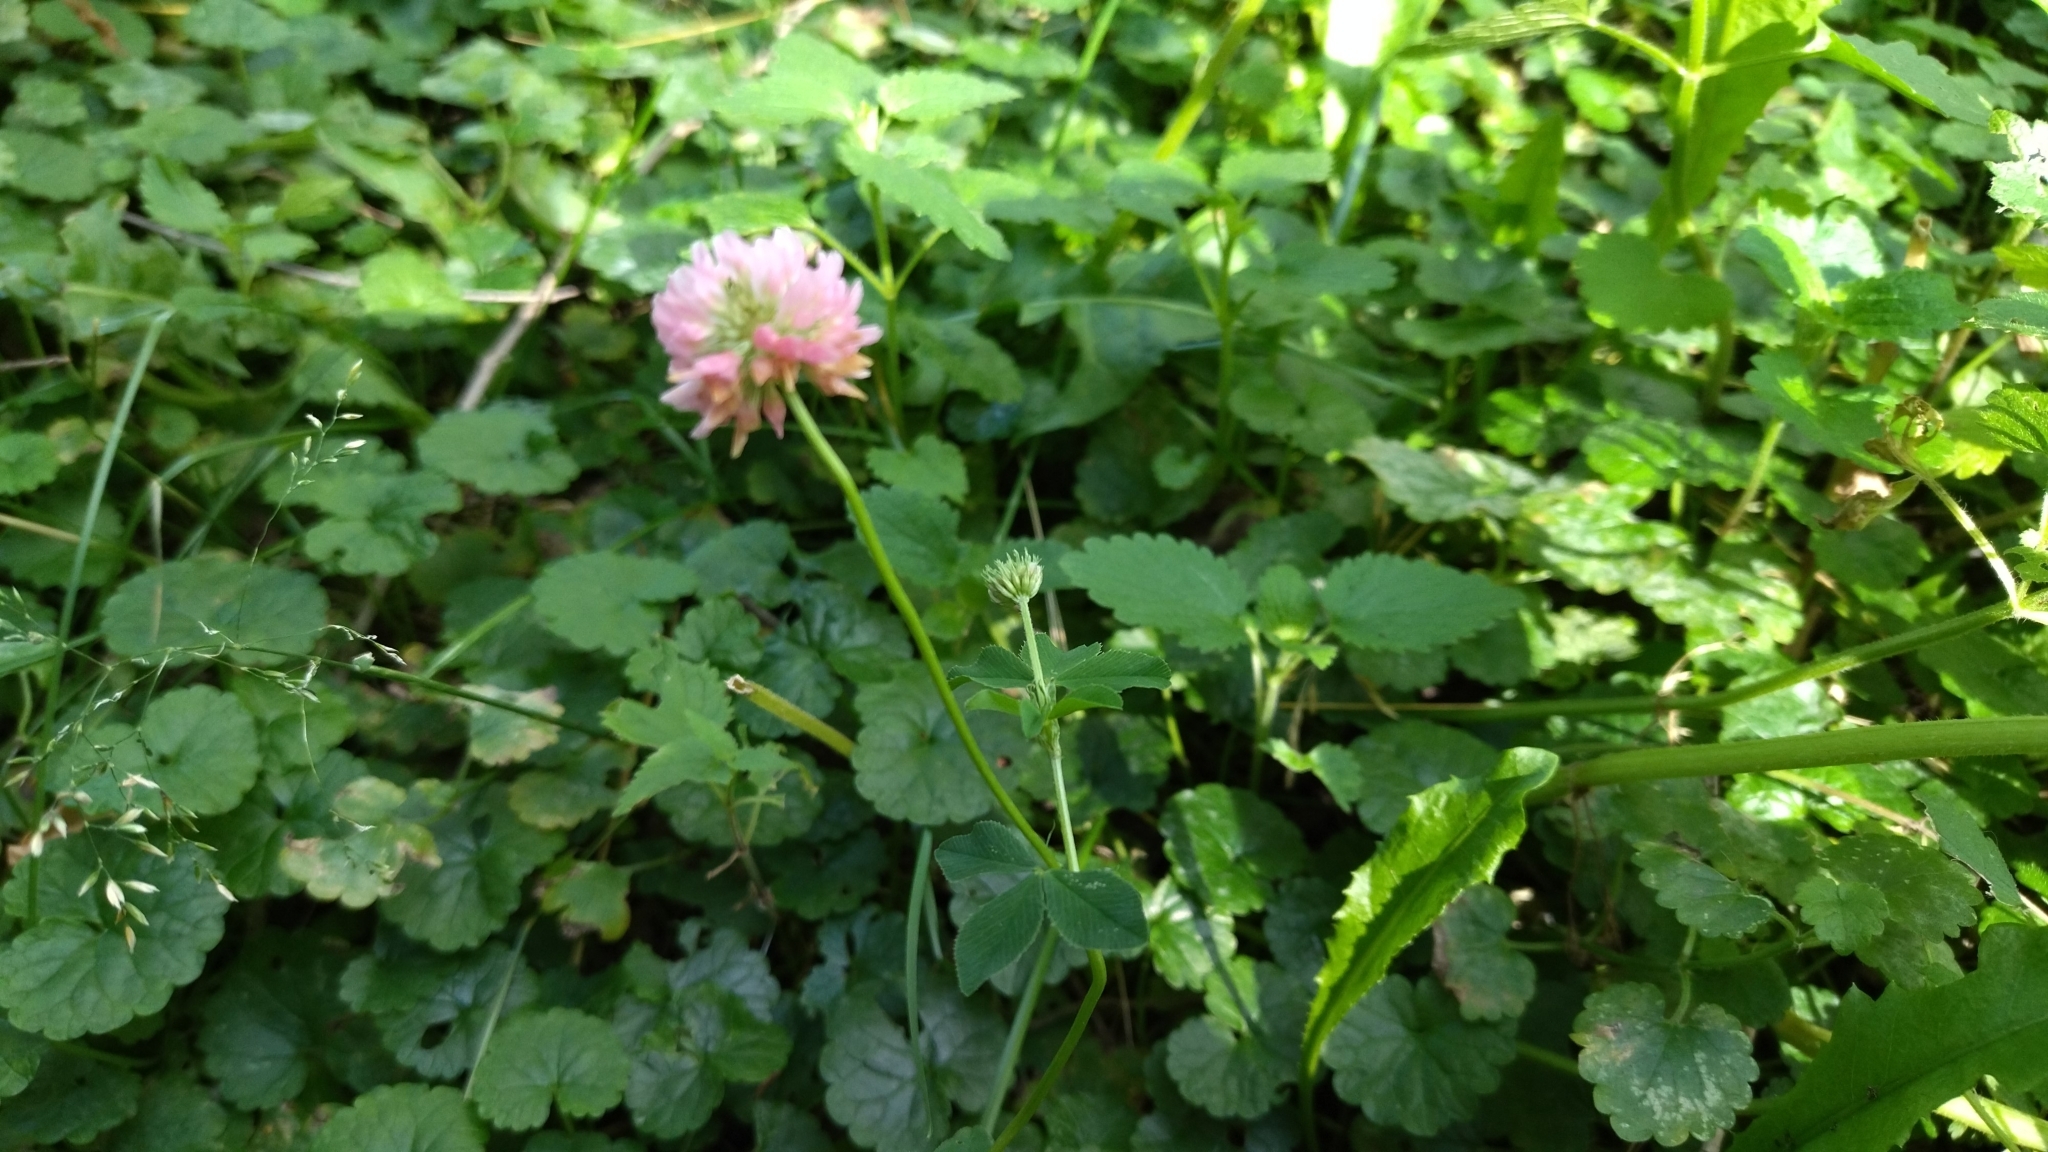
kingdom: Plantae
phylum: Tracheophyta
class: Magnoliopsida
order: Fabales
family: Fabaceae
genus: Trifolium
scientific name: Trifolium hybridum
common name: Alsike clover
